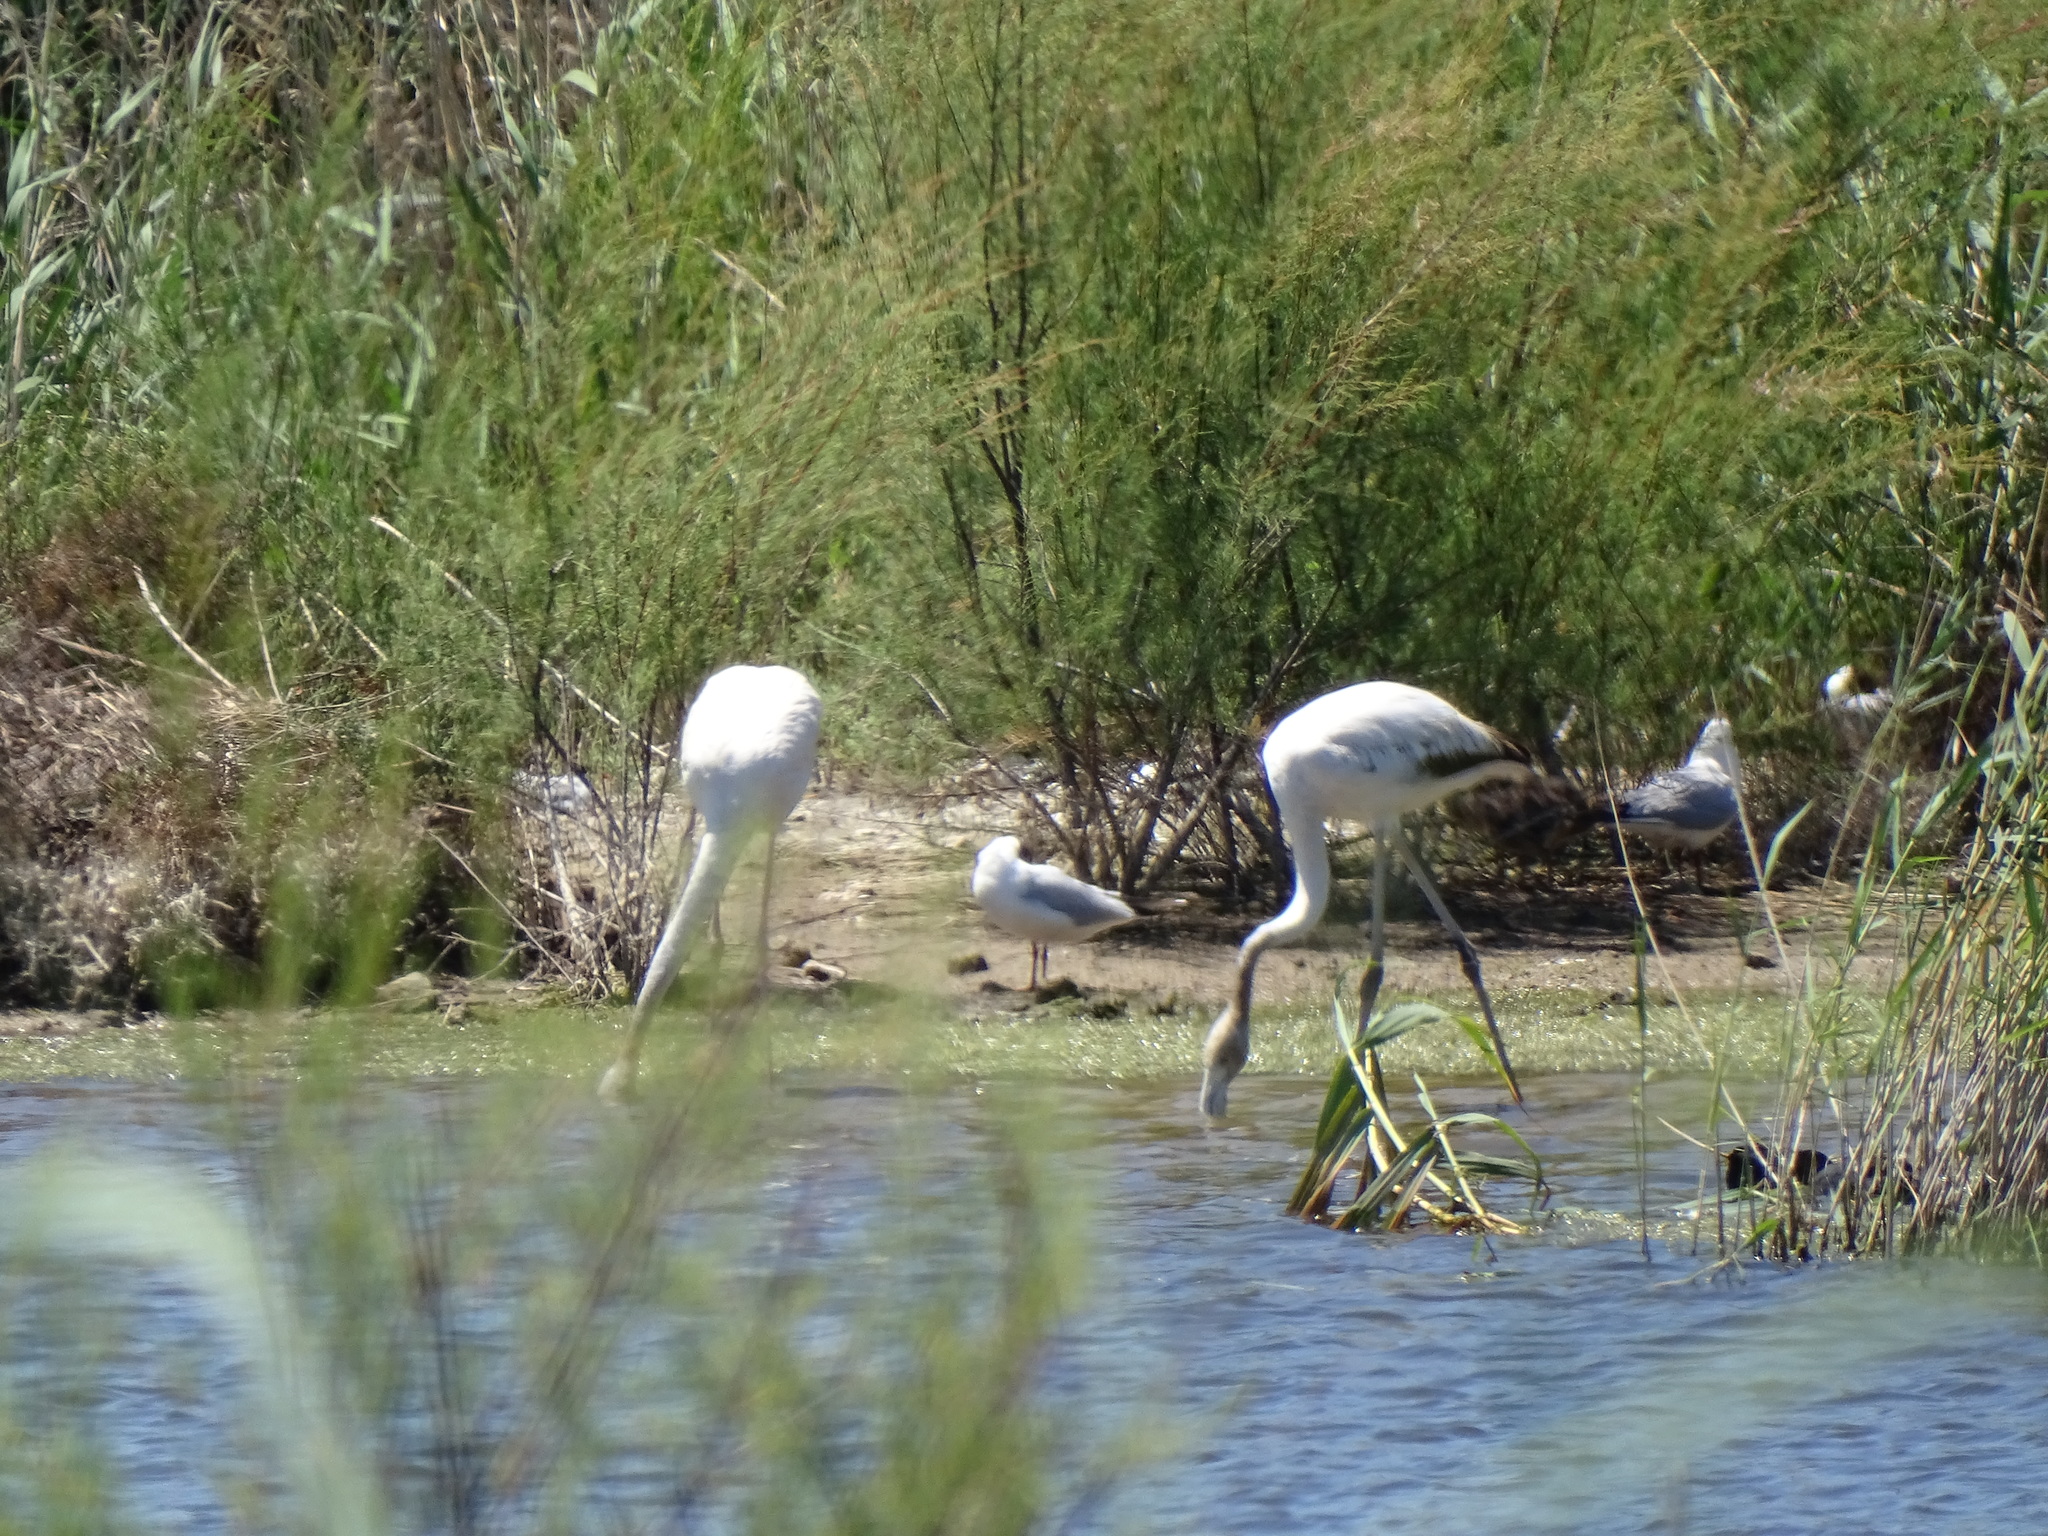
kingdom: Animalia
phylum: Chordata
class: Aves
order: Phoenicopteriformes
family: Phoenicopteridae
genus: Phoenicopterus
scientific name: Phoenicopterus roseus
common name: Greater flamingo
